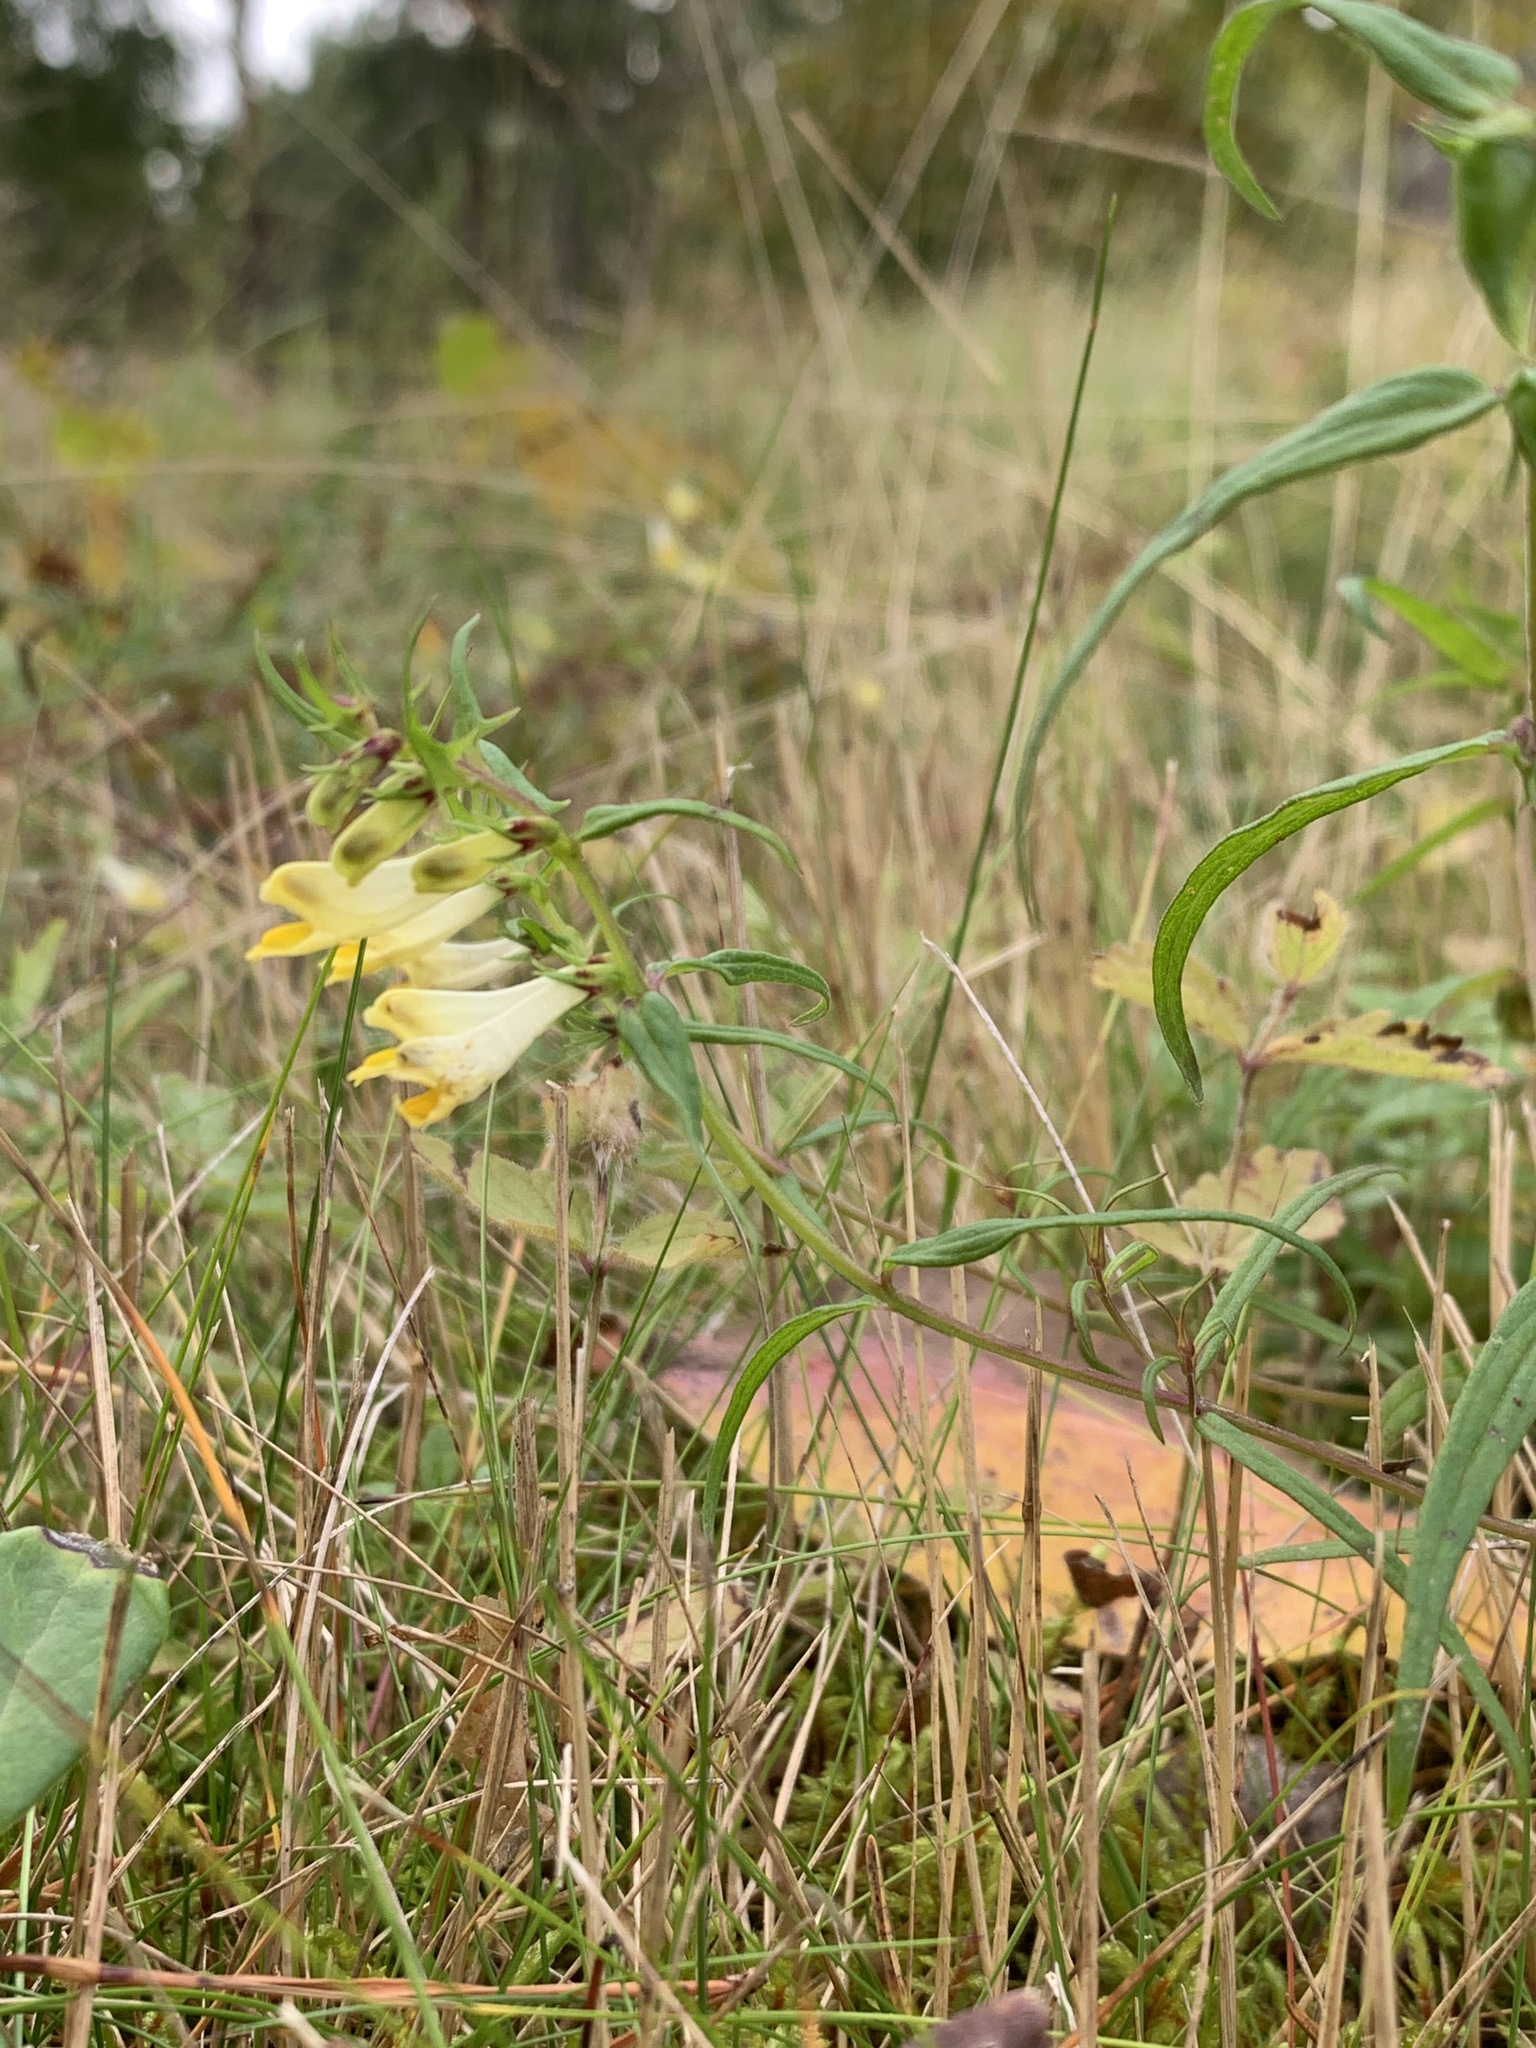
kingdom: Plantae
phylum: Tracheophyta
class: Magnoliopsida
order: Lamiales
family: Orobanchaceae
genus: Melampyrum
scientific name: Melampyrum pratense
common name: Common cow-wheat
